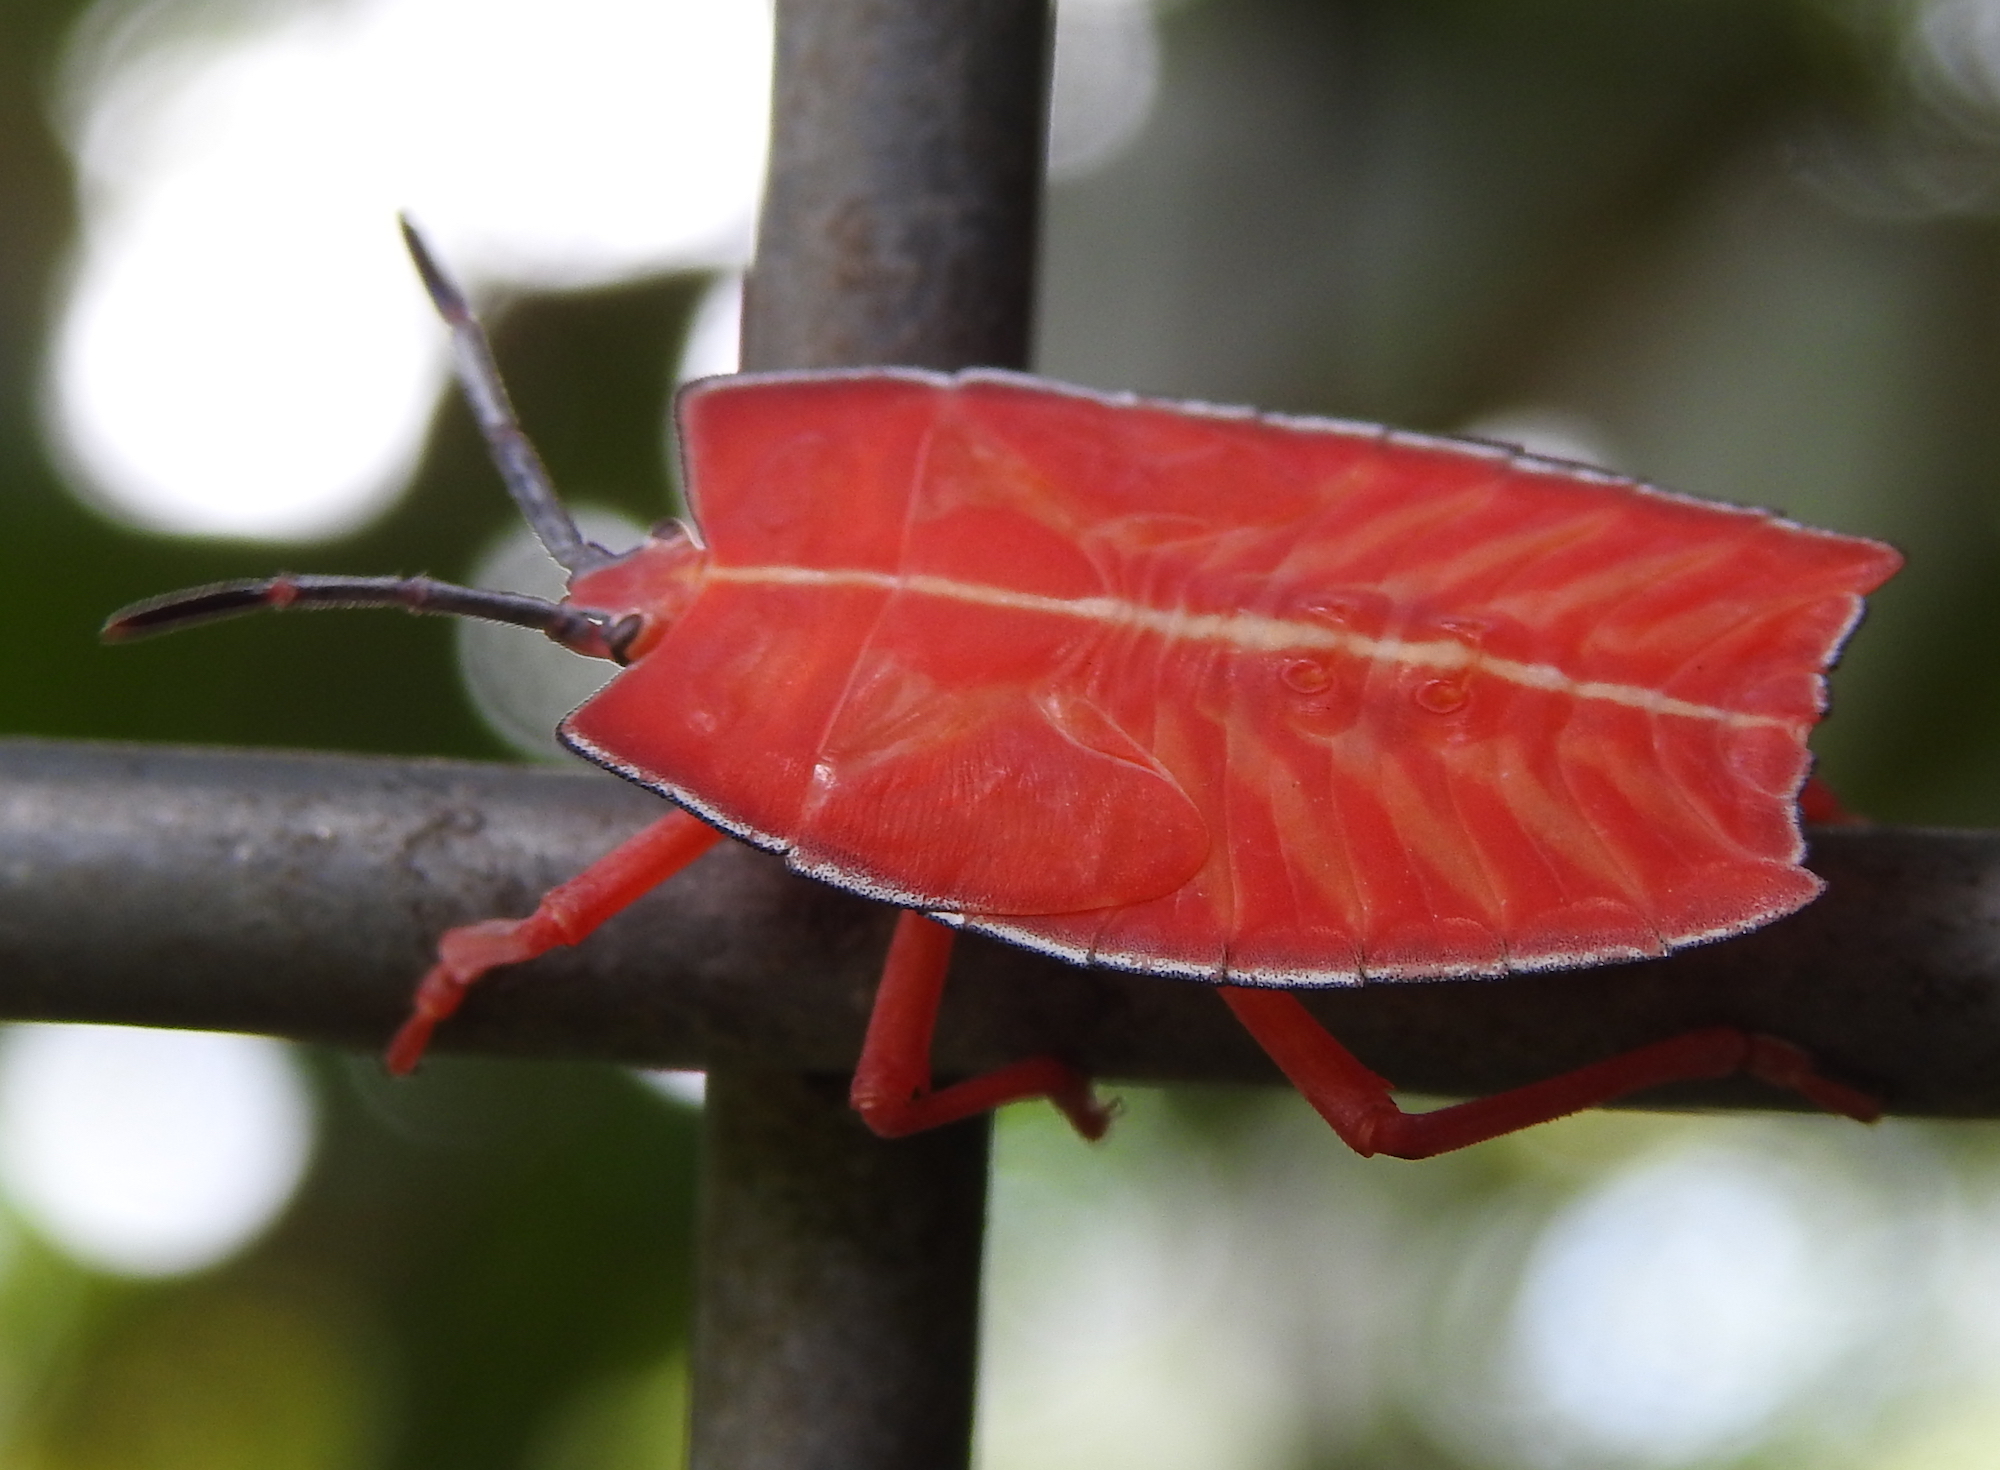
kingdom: Animalia
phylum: Arthropoda
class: Insecta
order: Hemiptera
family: Tessaratomidae
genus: Pycanum
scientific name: Pycanum alternatum
